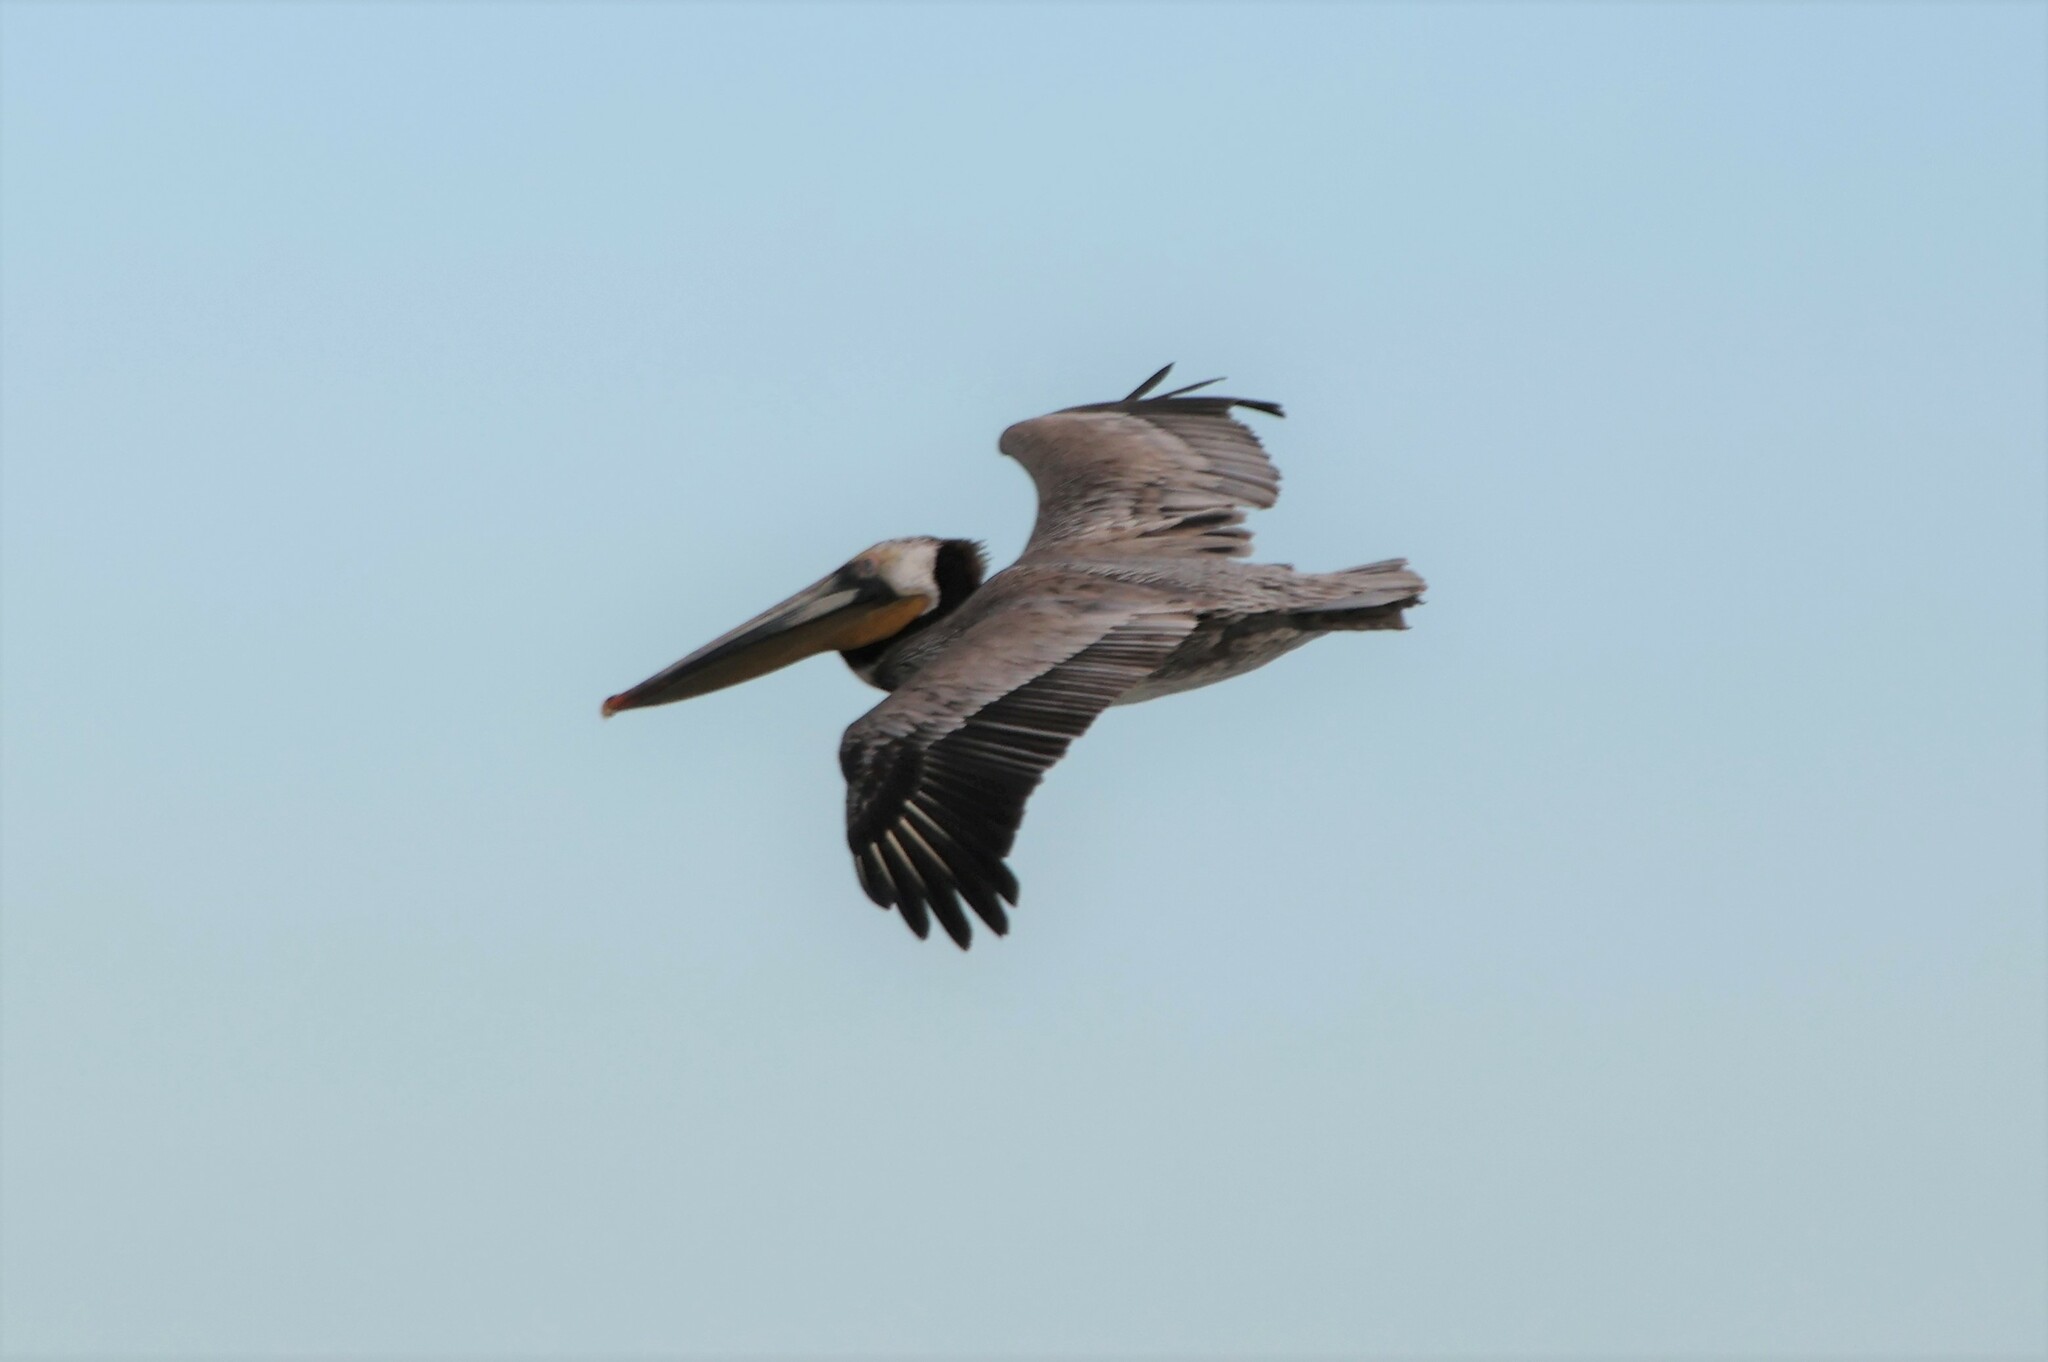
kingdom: Animalia
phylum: Chordata
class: Aves
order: Pelecaniformes
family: Pelecanidae
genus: Pelecanus
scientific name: Pelecanus occidentalis
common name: Brown pelican
